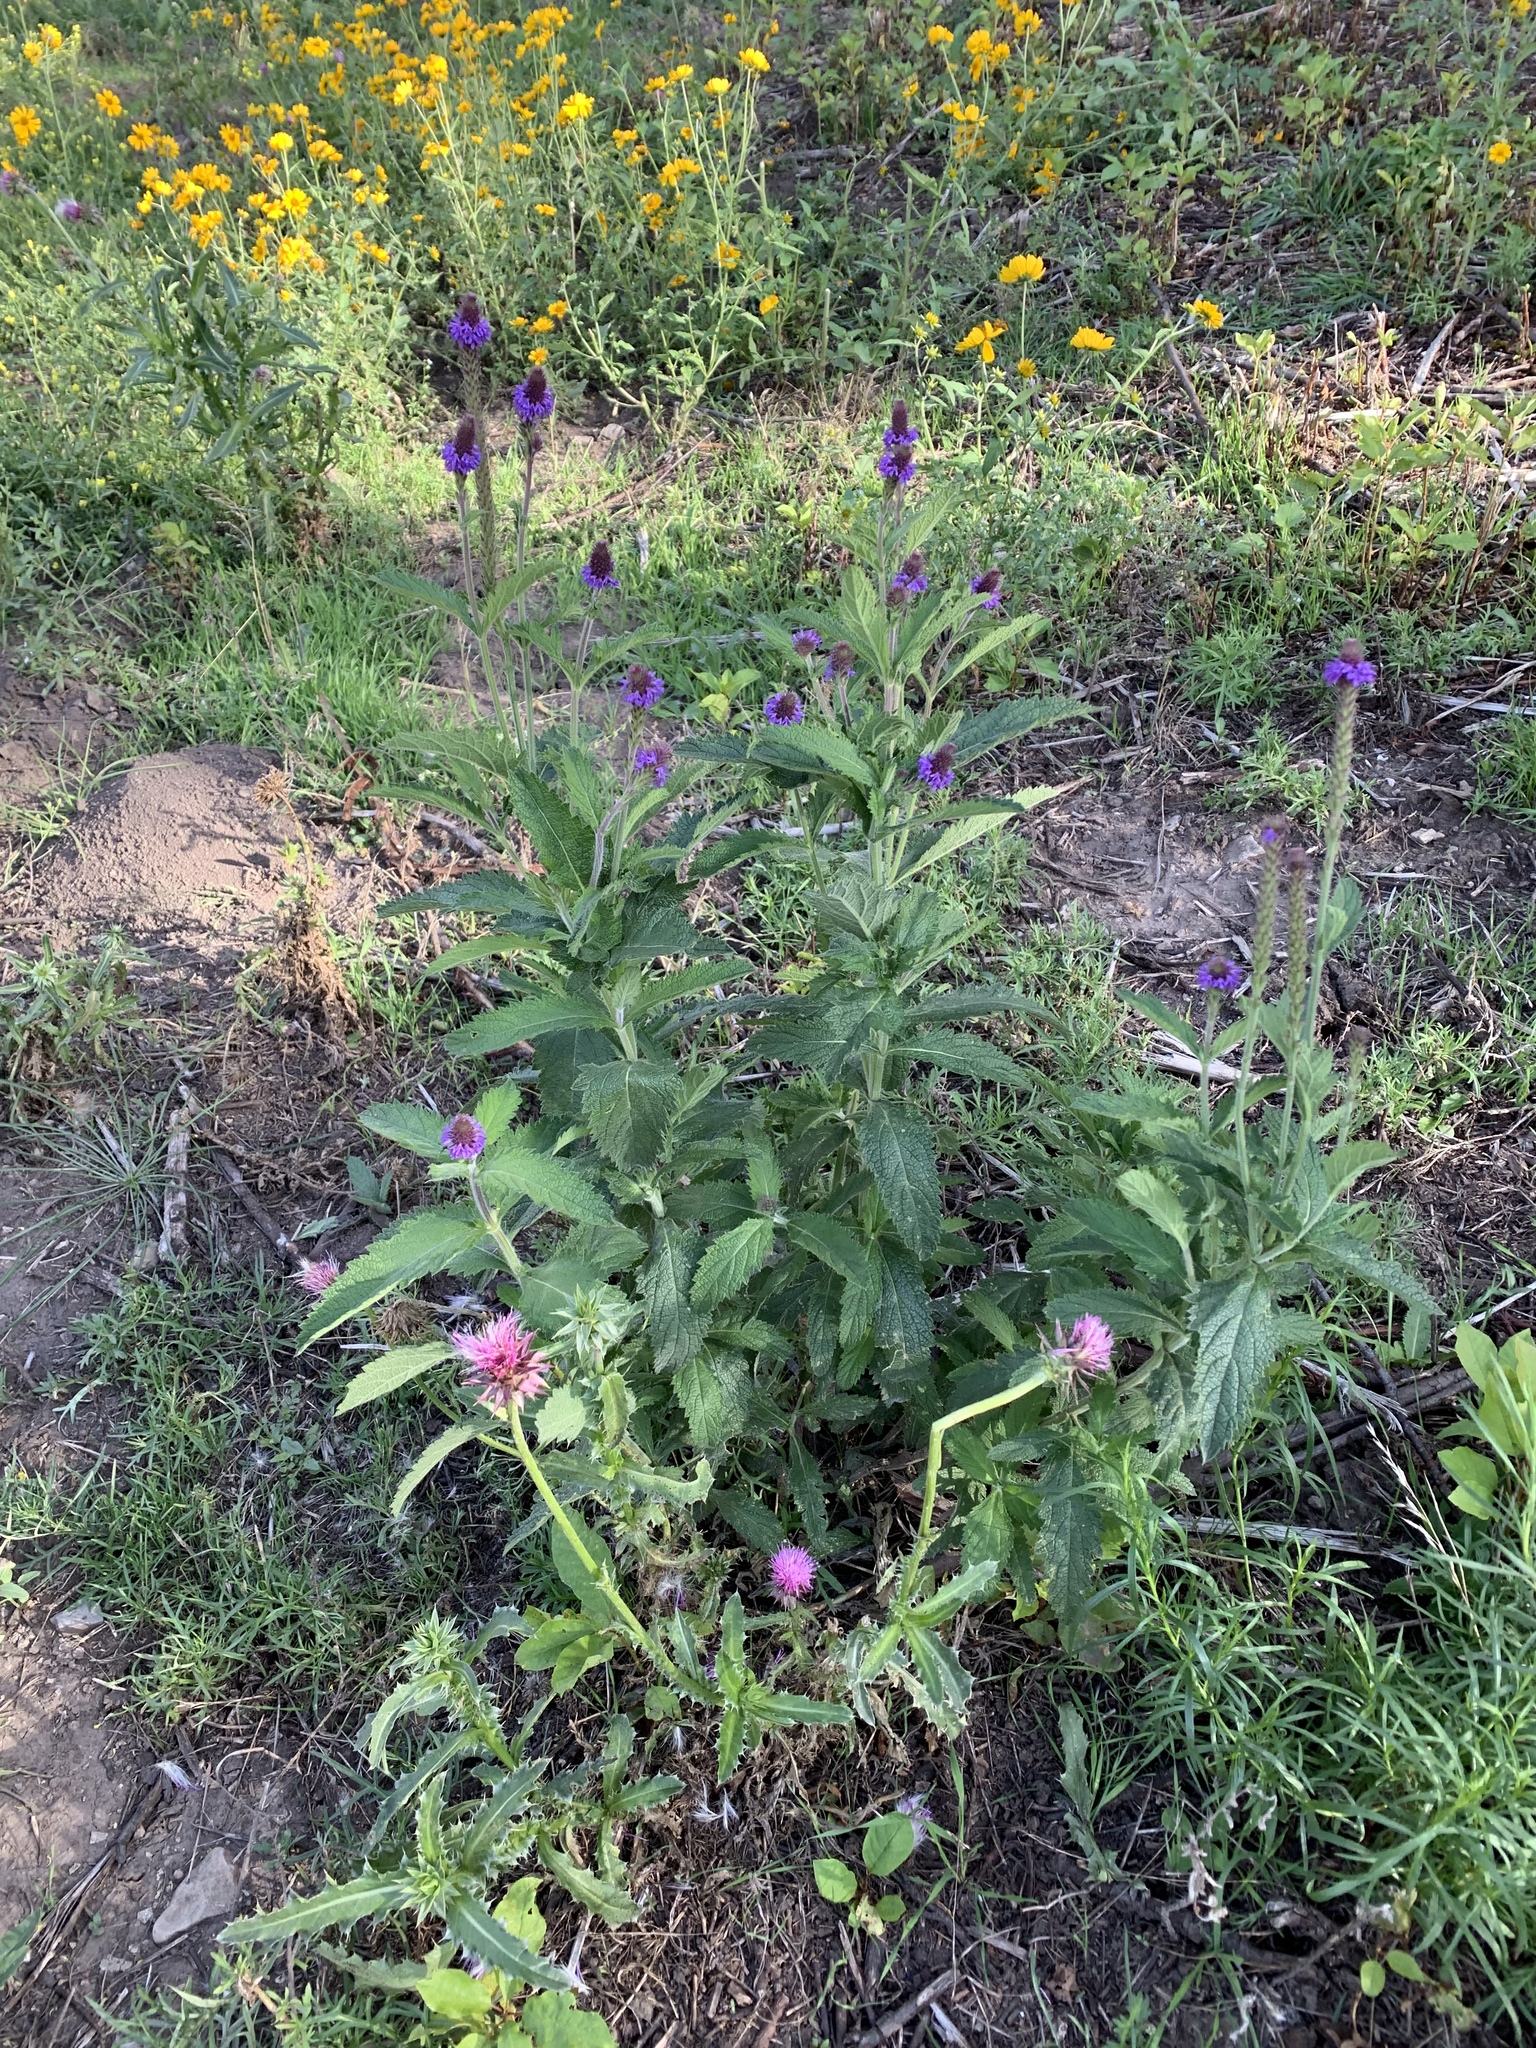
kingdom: Plantae
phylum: Tracheophyta
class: Magnoliopsida
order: Lamiales
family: Verbenaceae
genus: Verbena
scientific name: Verbena macdougalii
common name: New mexico vervain
